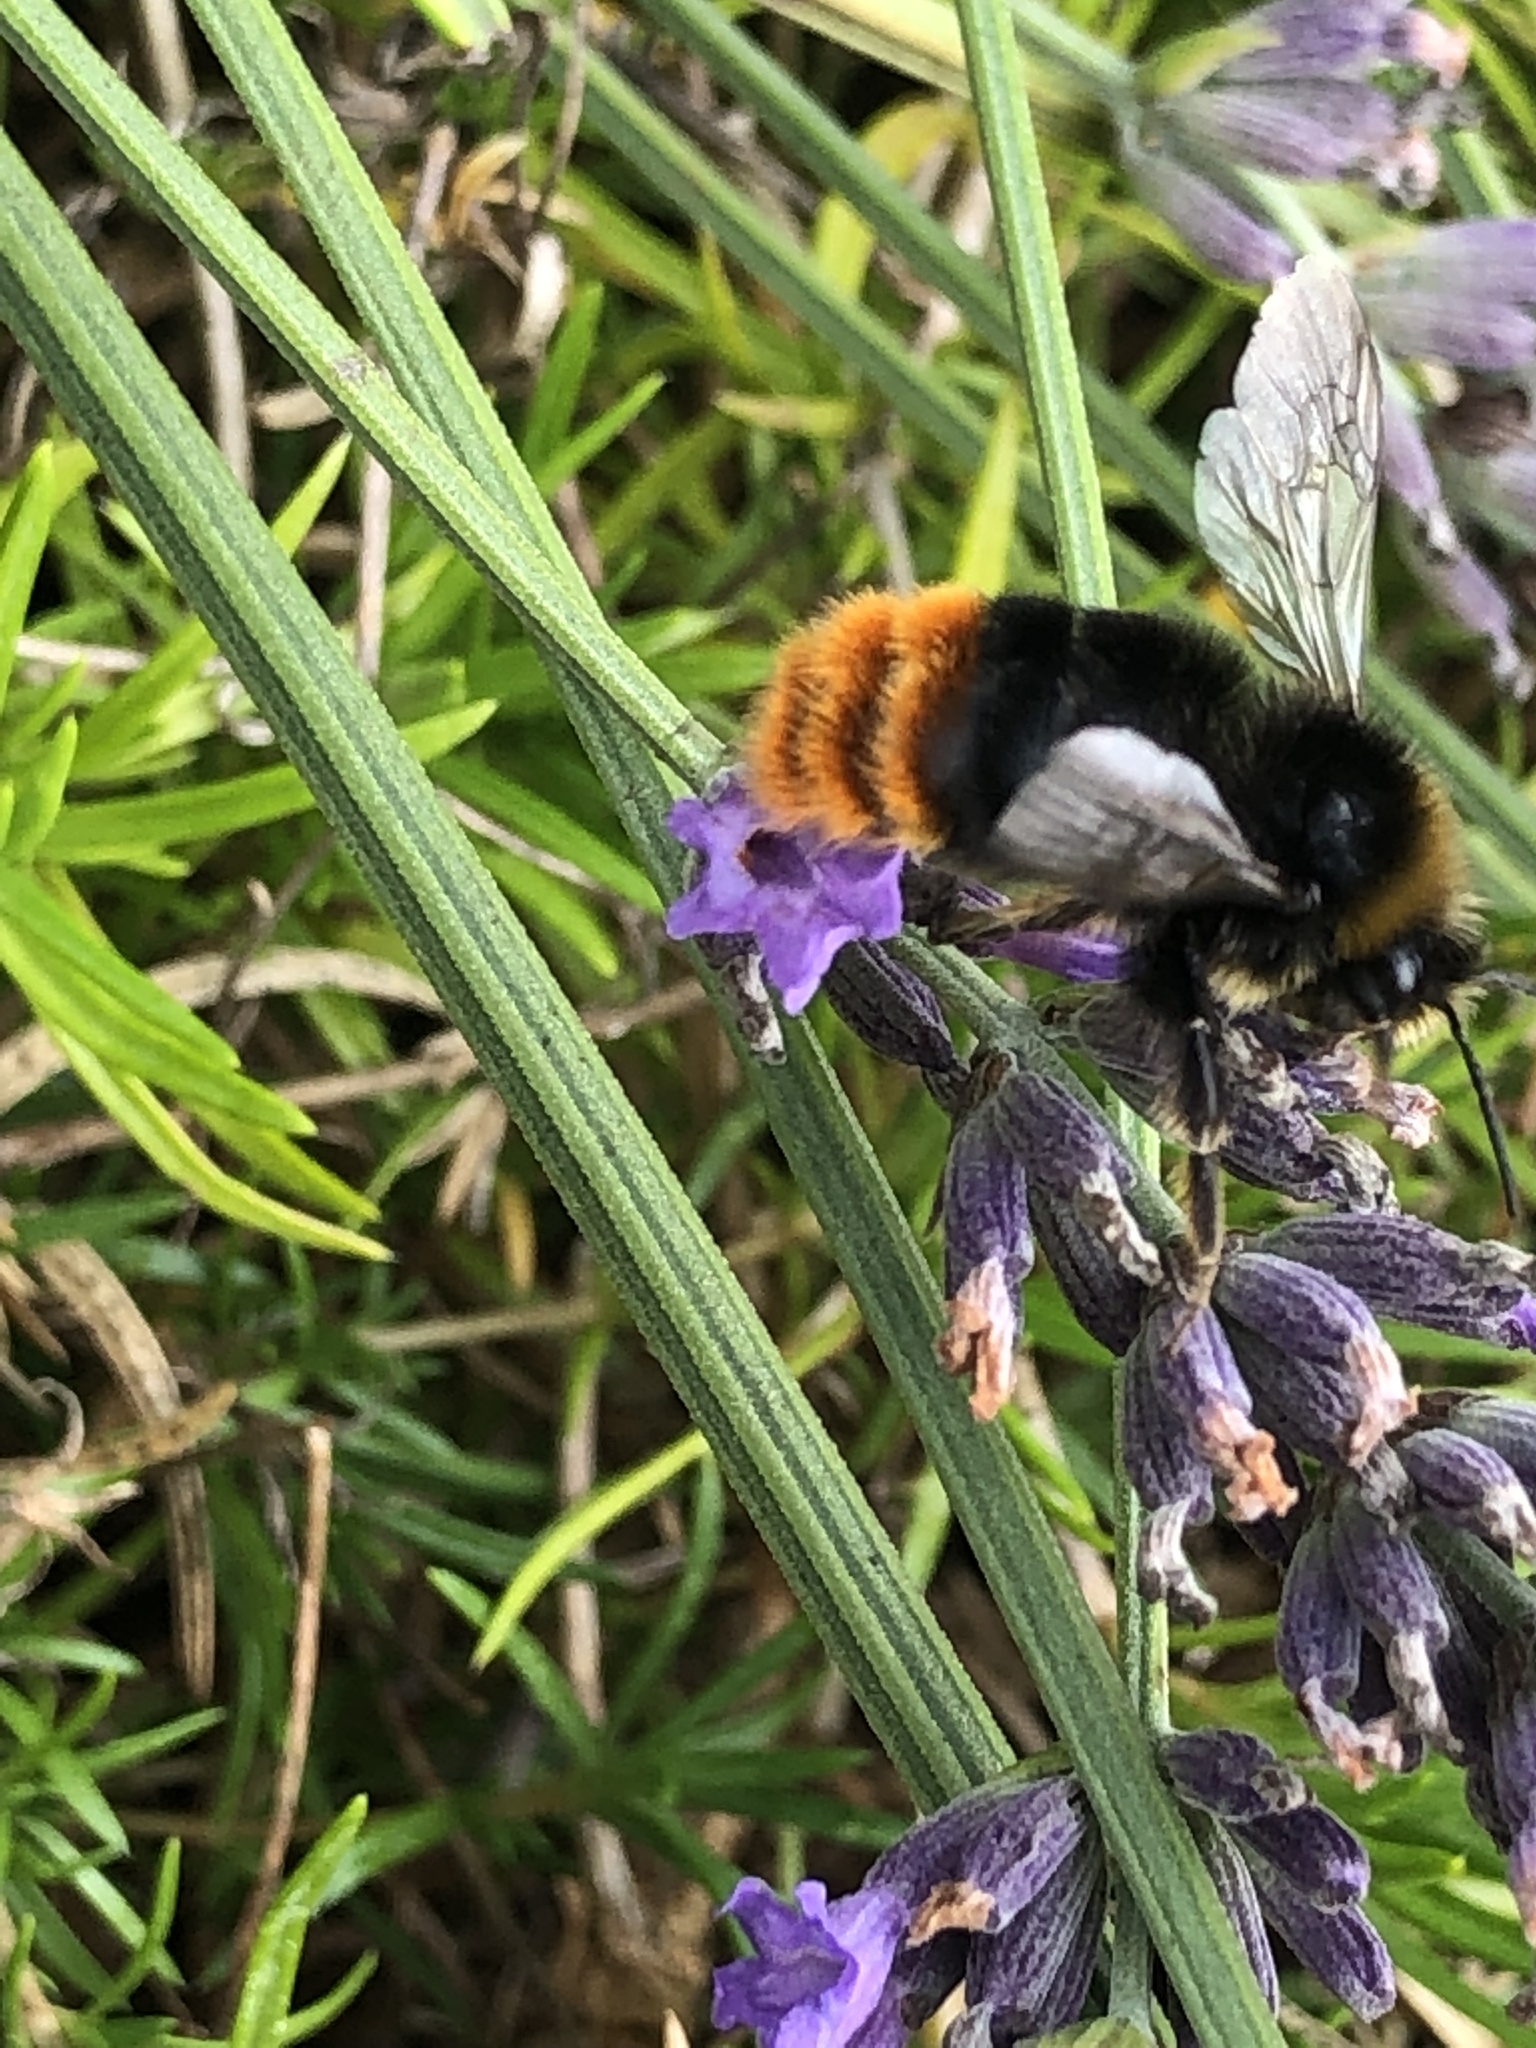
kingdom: Animalia
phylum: Arthropoda
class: Insecta
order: Hymenoptera
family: Apidae
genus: Bombus
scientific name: Bombus lapidarius
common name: Large red-tailed humble-bee
